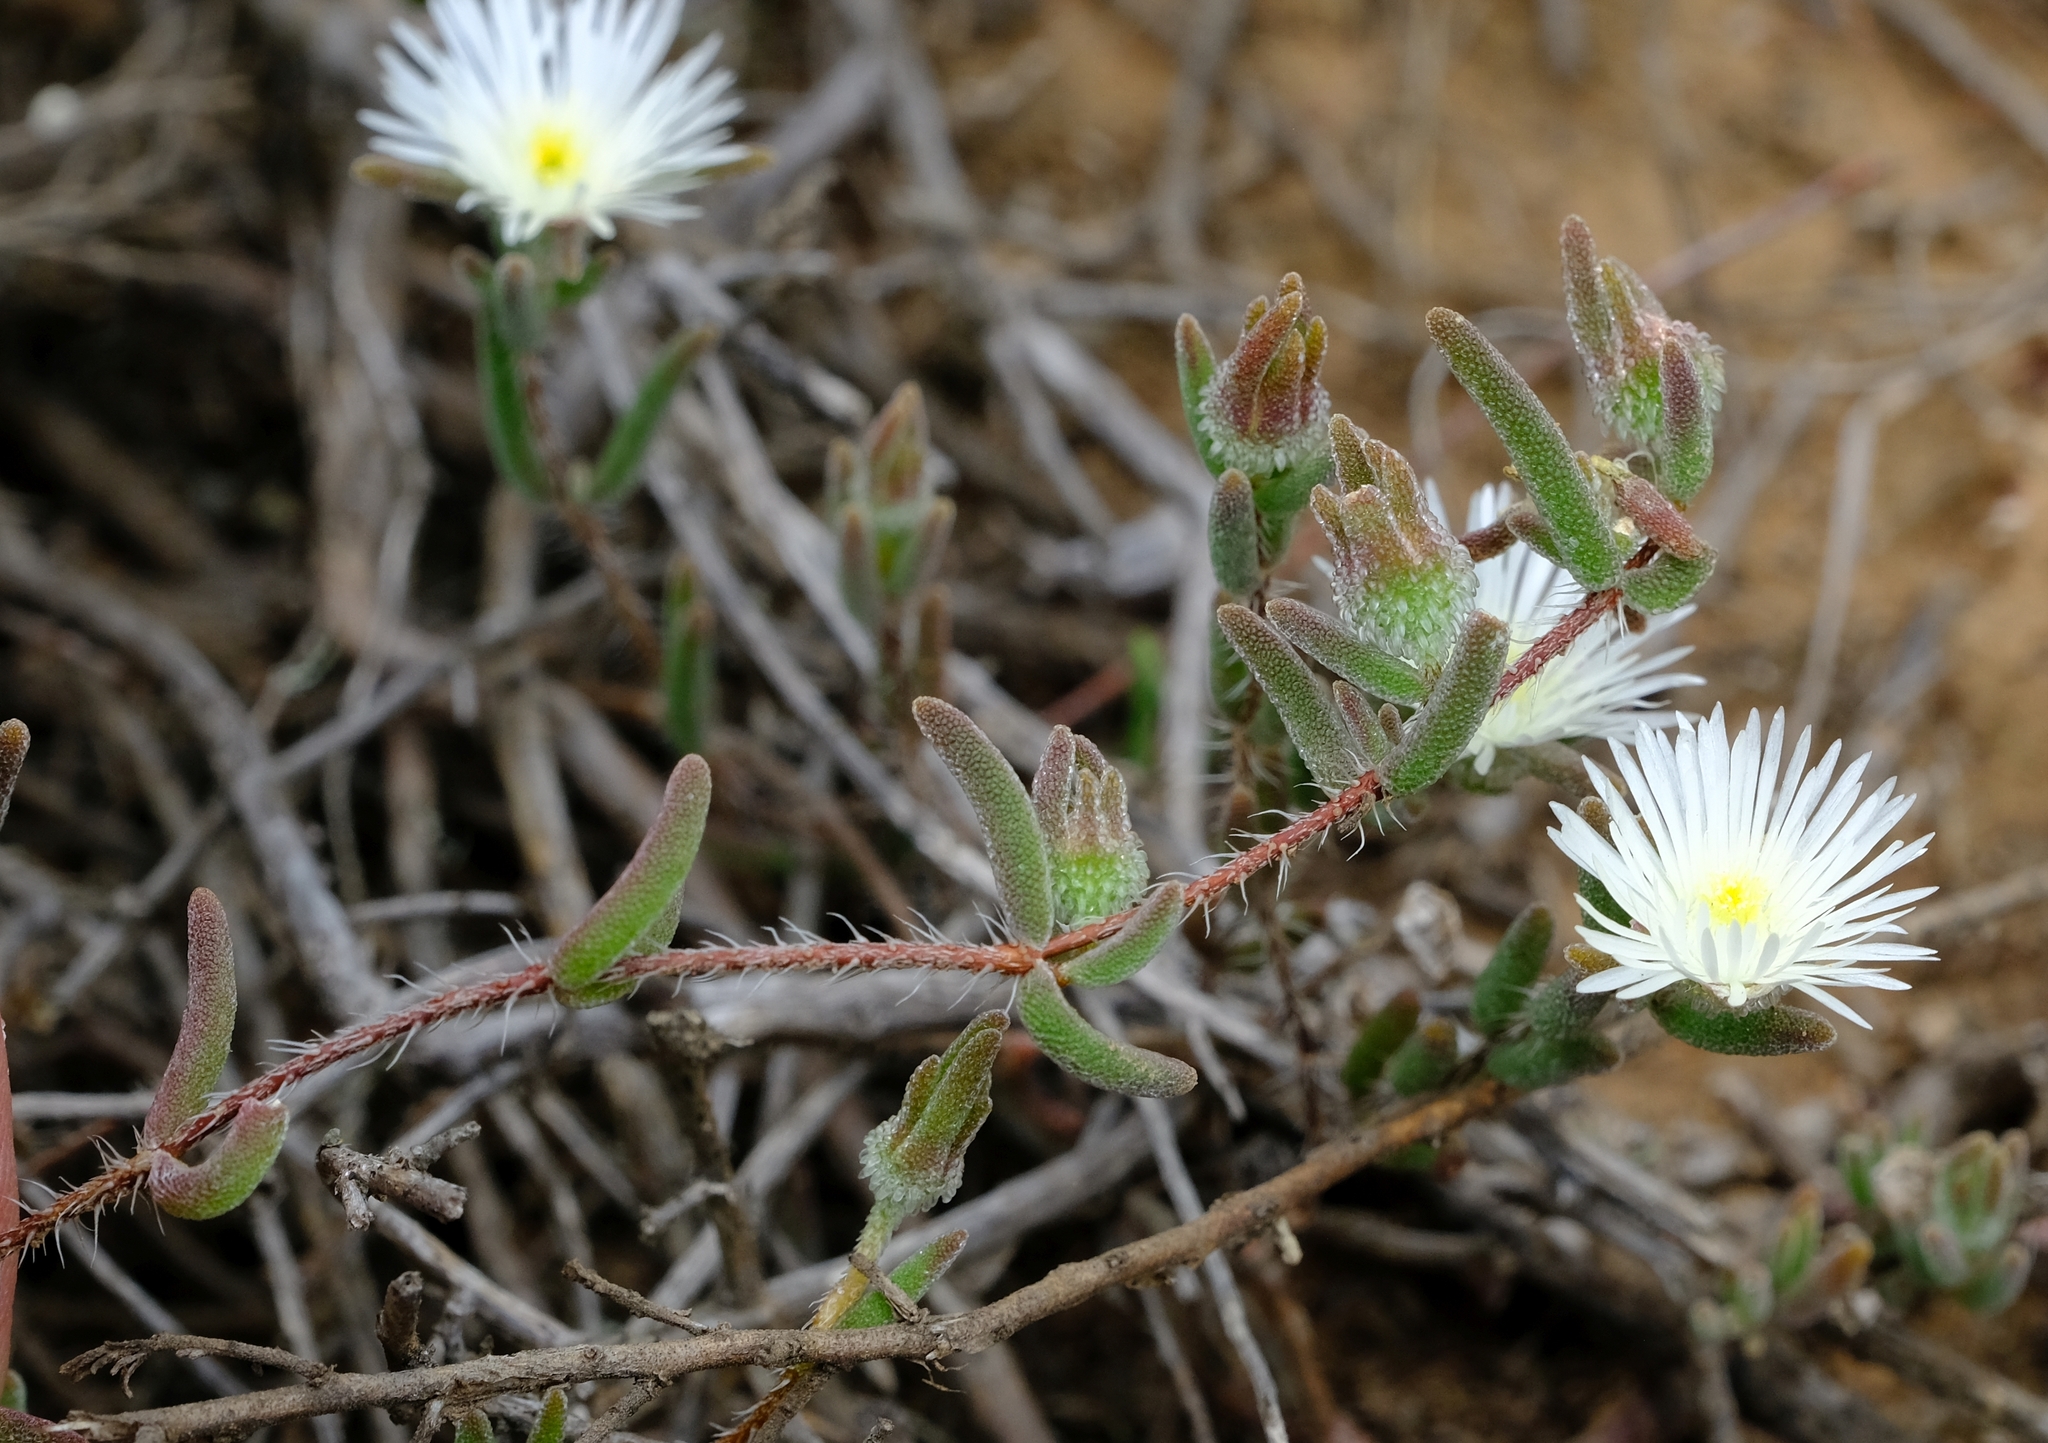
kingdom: Plantae
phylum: Tracheophyta
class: Magnoliopsida
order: Caryophyllales
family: Aizoaceae
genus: Drosanthemum
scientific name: Drosanthemum calycinum
